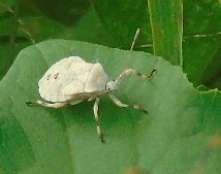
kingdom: Animalia
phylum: Arthropoda
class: Insecta
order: Hemiptera
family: Coreidae
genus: Anasa
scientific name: Anasa
